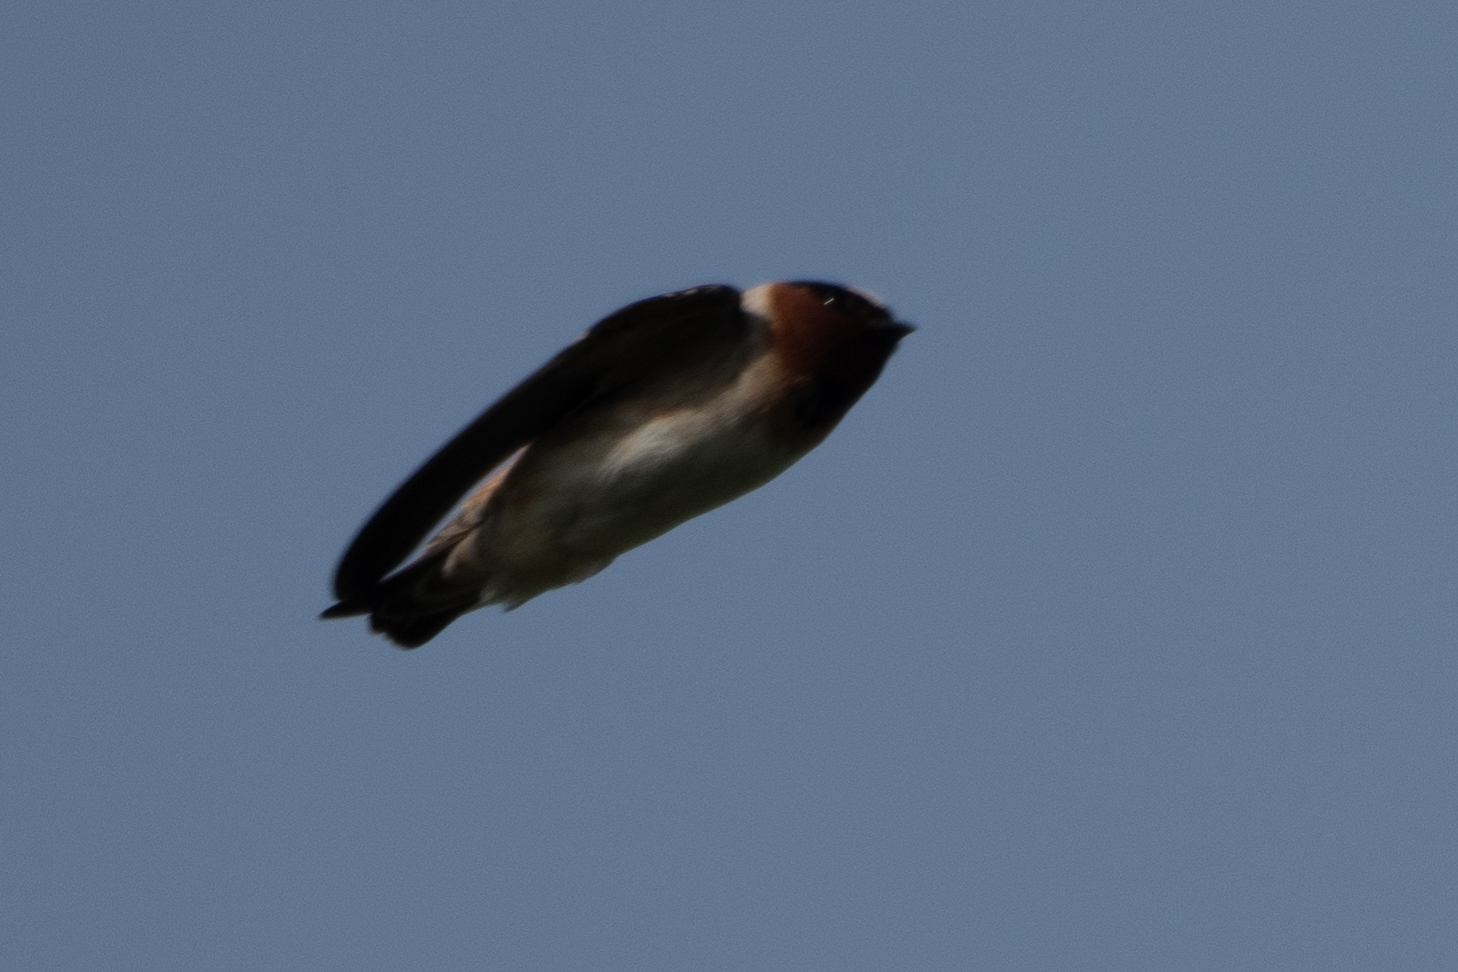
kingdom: Animalia
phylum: Chordata
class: Aves
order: Passeriformes
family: Hirundinidae
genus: Petrochelidon
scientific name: Petrochelidon pyrrhonota
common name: American cliff swallow
